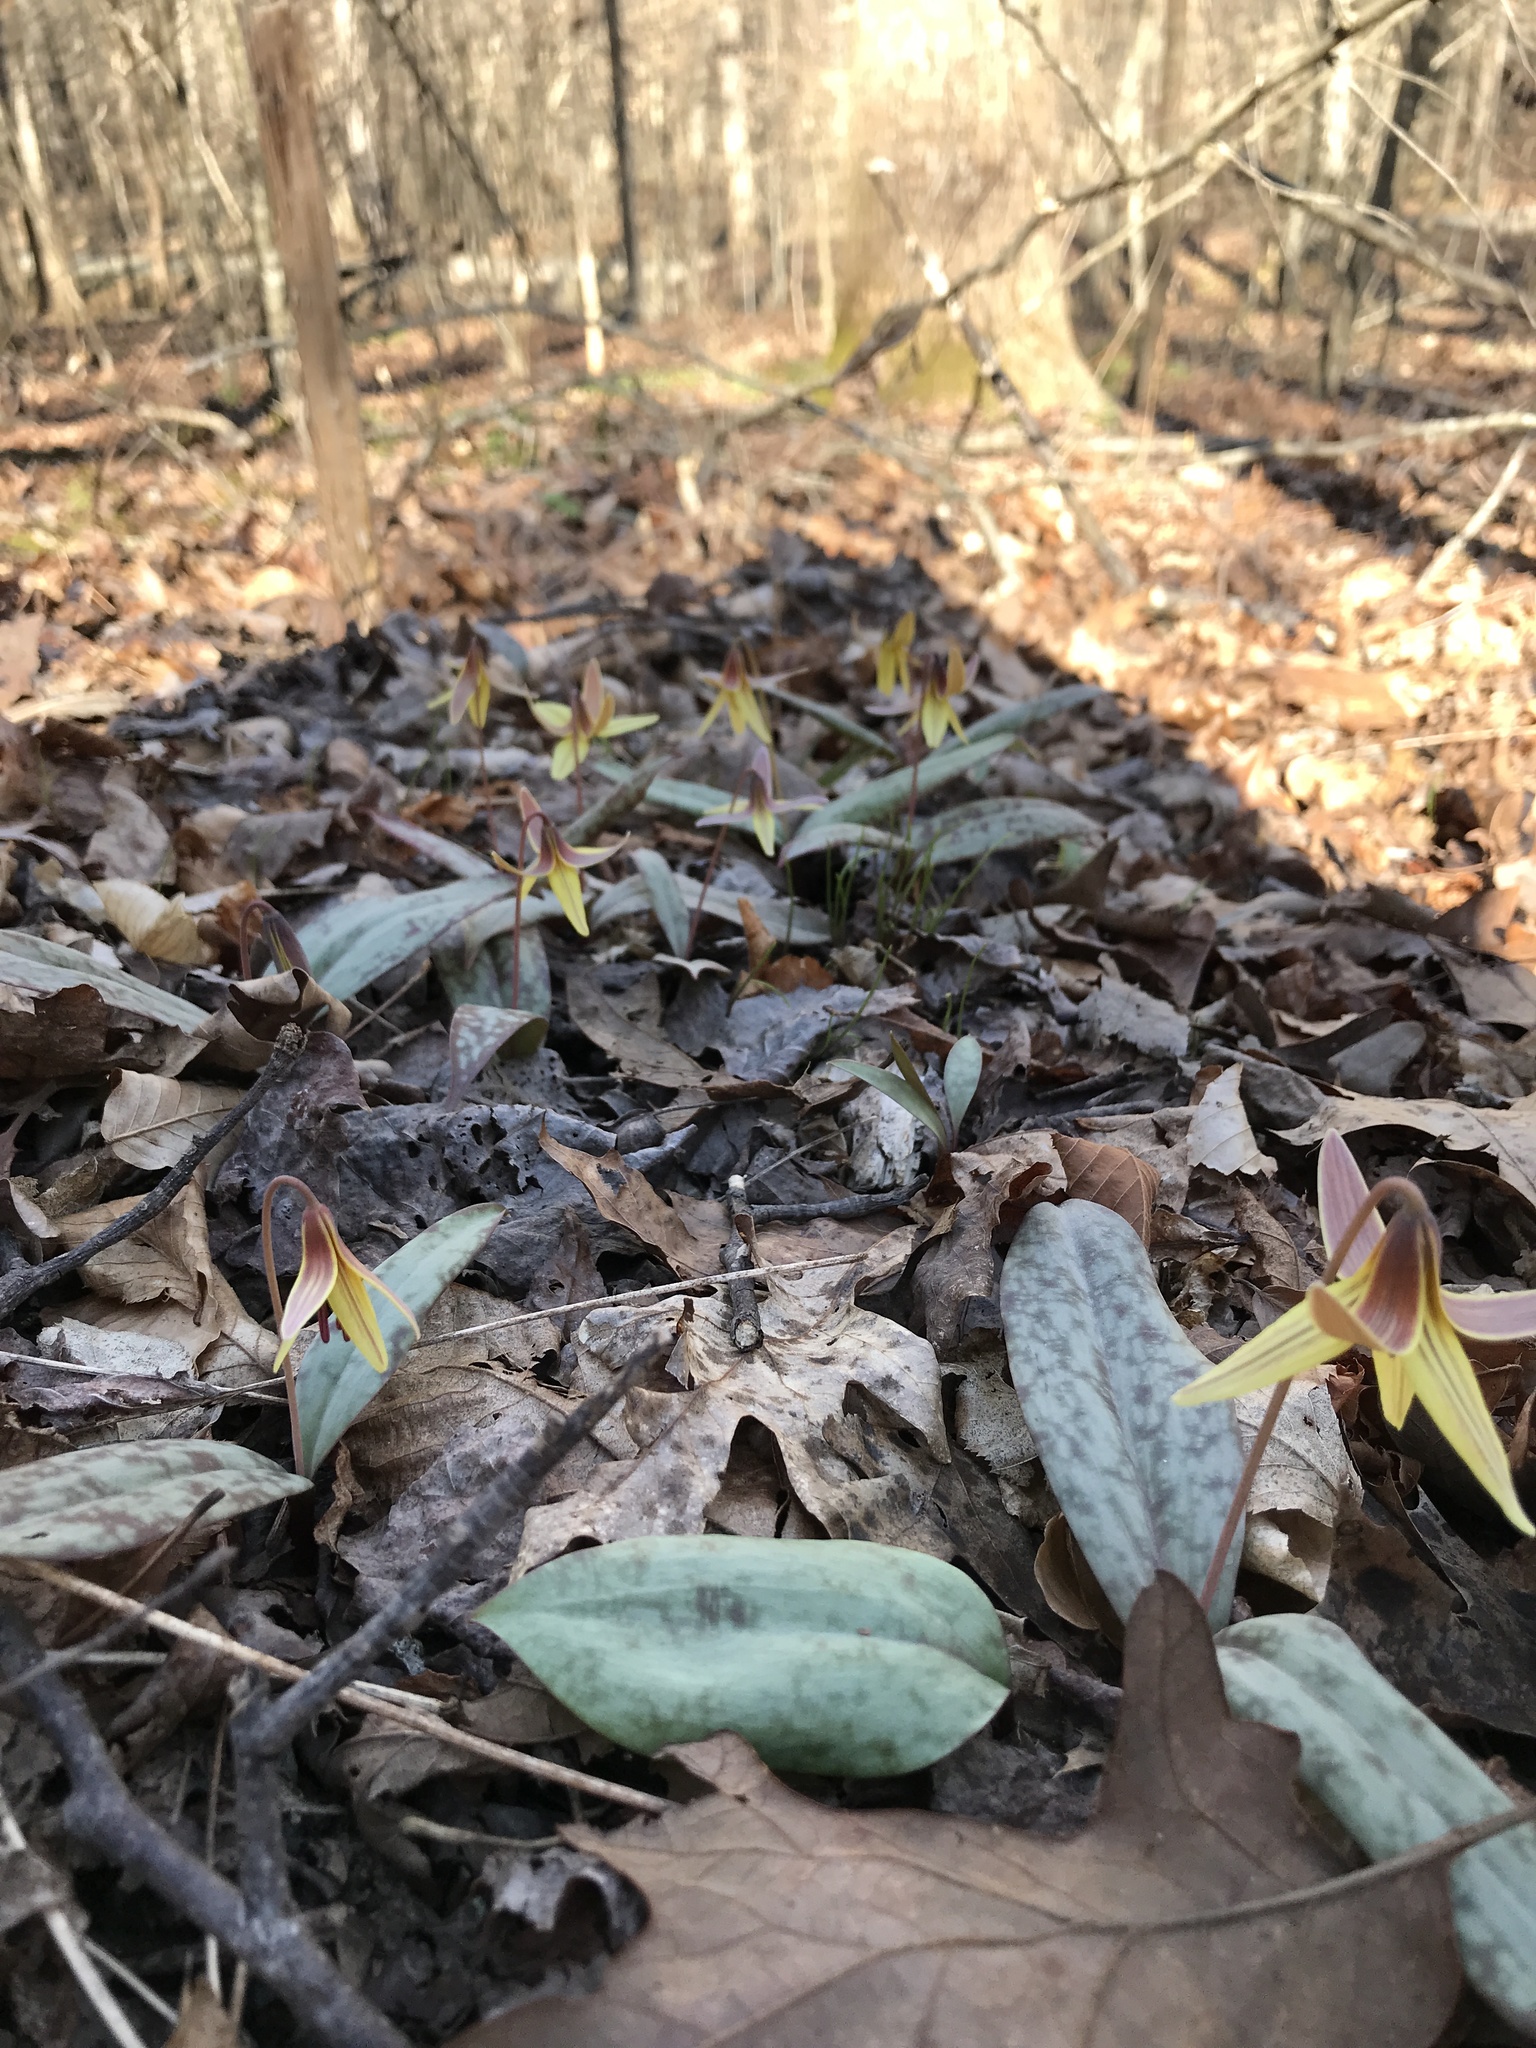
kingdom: Plantae
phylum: Tracheophyta
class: Liliopsida
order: Liliales
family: Liliaceae
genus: Erythronium
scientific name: Erythronium umbilicatum
